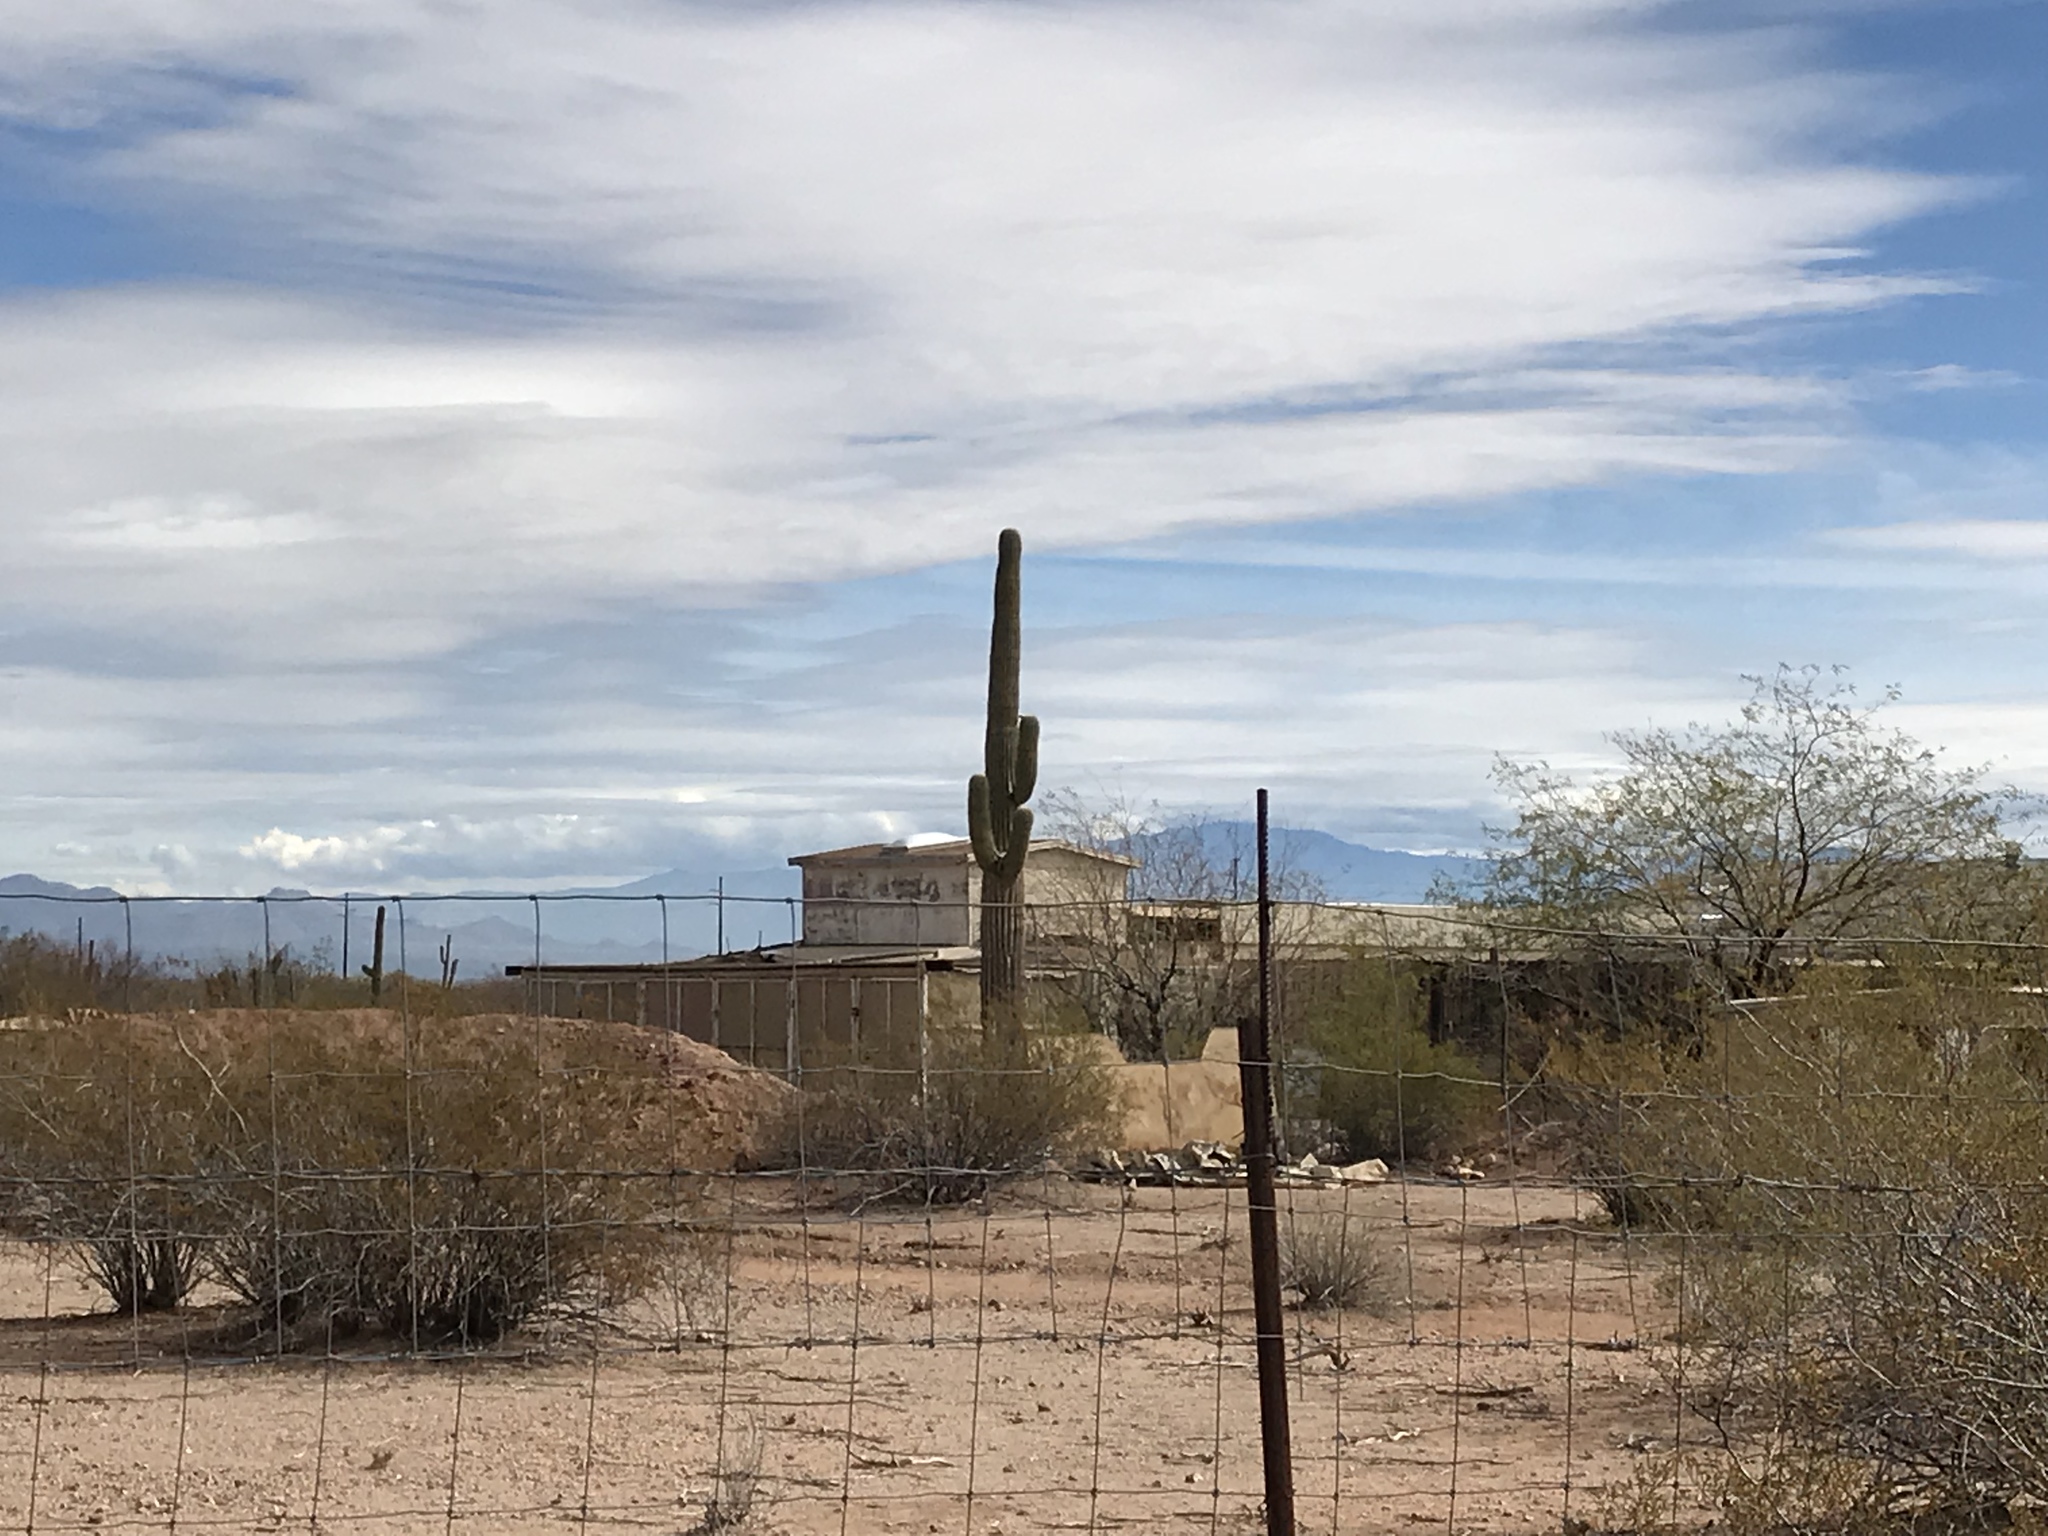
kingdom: Plantae
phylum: Tracheophyta
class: Magnoliopsida
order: Caryophyllales
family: Cactaceae
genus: Carnegiea
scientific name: Carnegiea gigantea
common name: Saguaro
